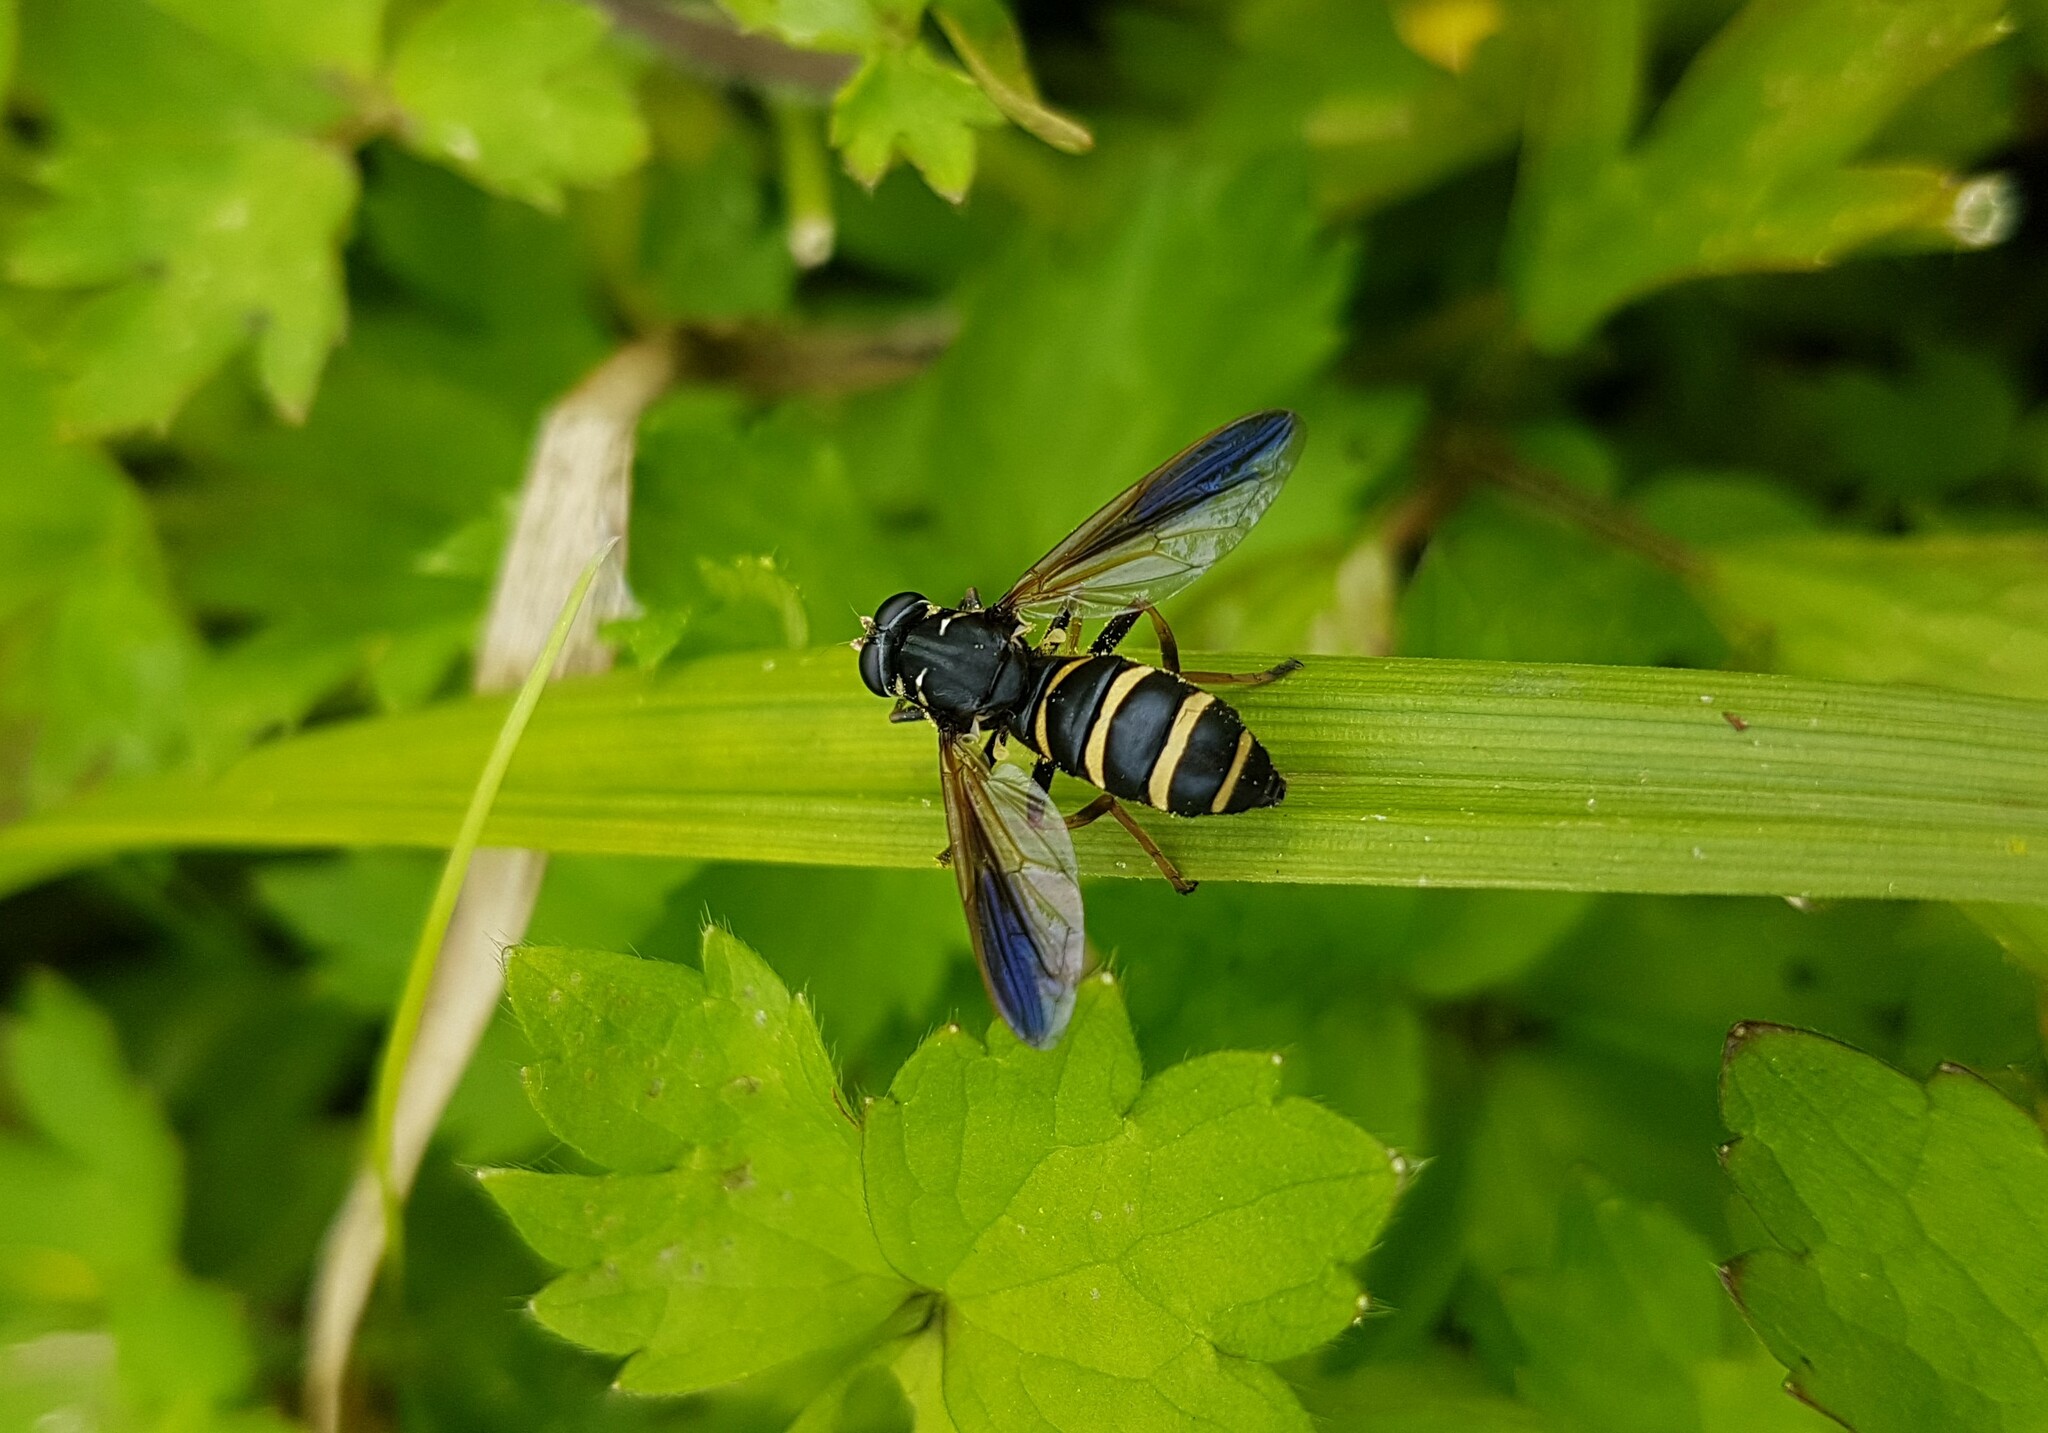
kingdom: Animalia
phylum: Arthropoda
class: Insecta
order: Diptera
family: Syrphidae
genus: Temnostoma
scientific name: Temnostoma angustistriatum
